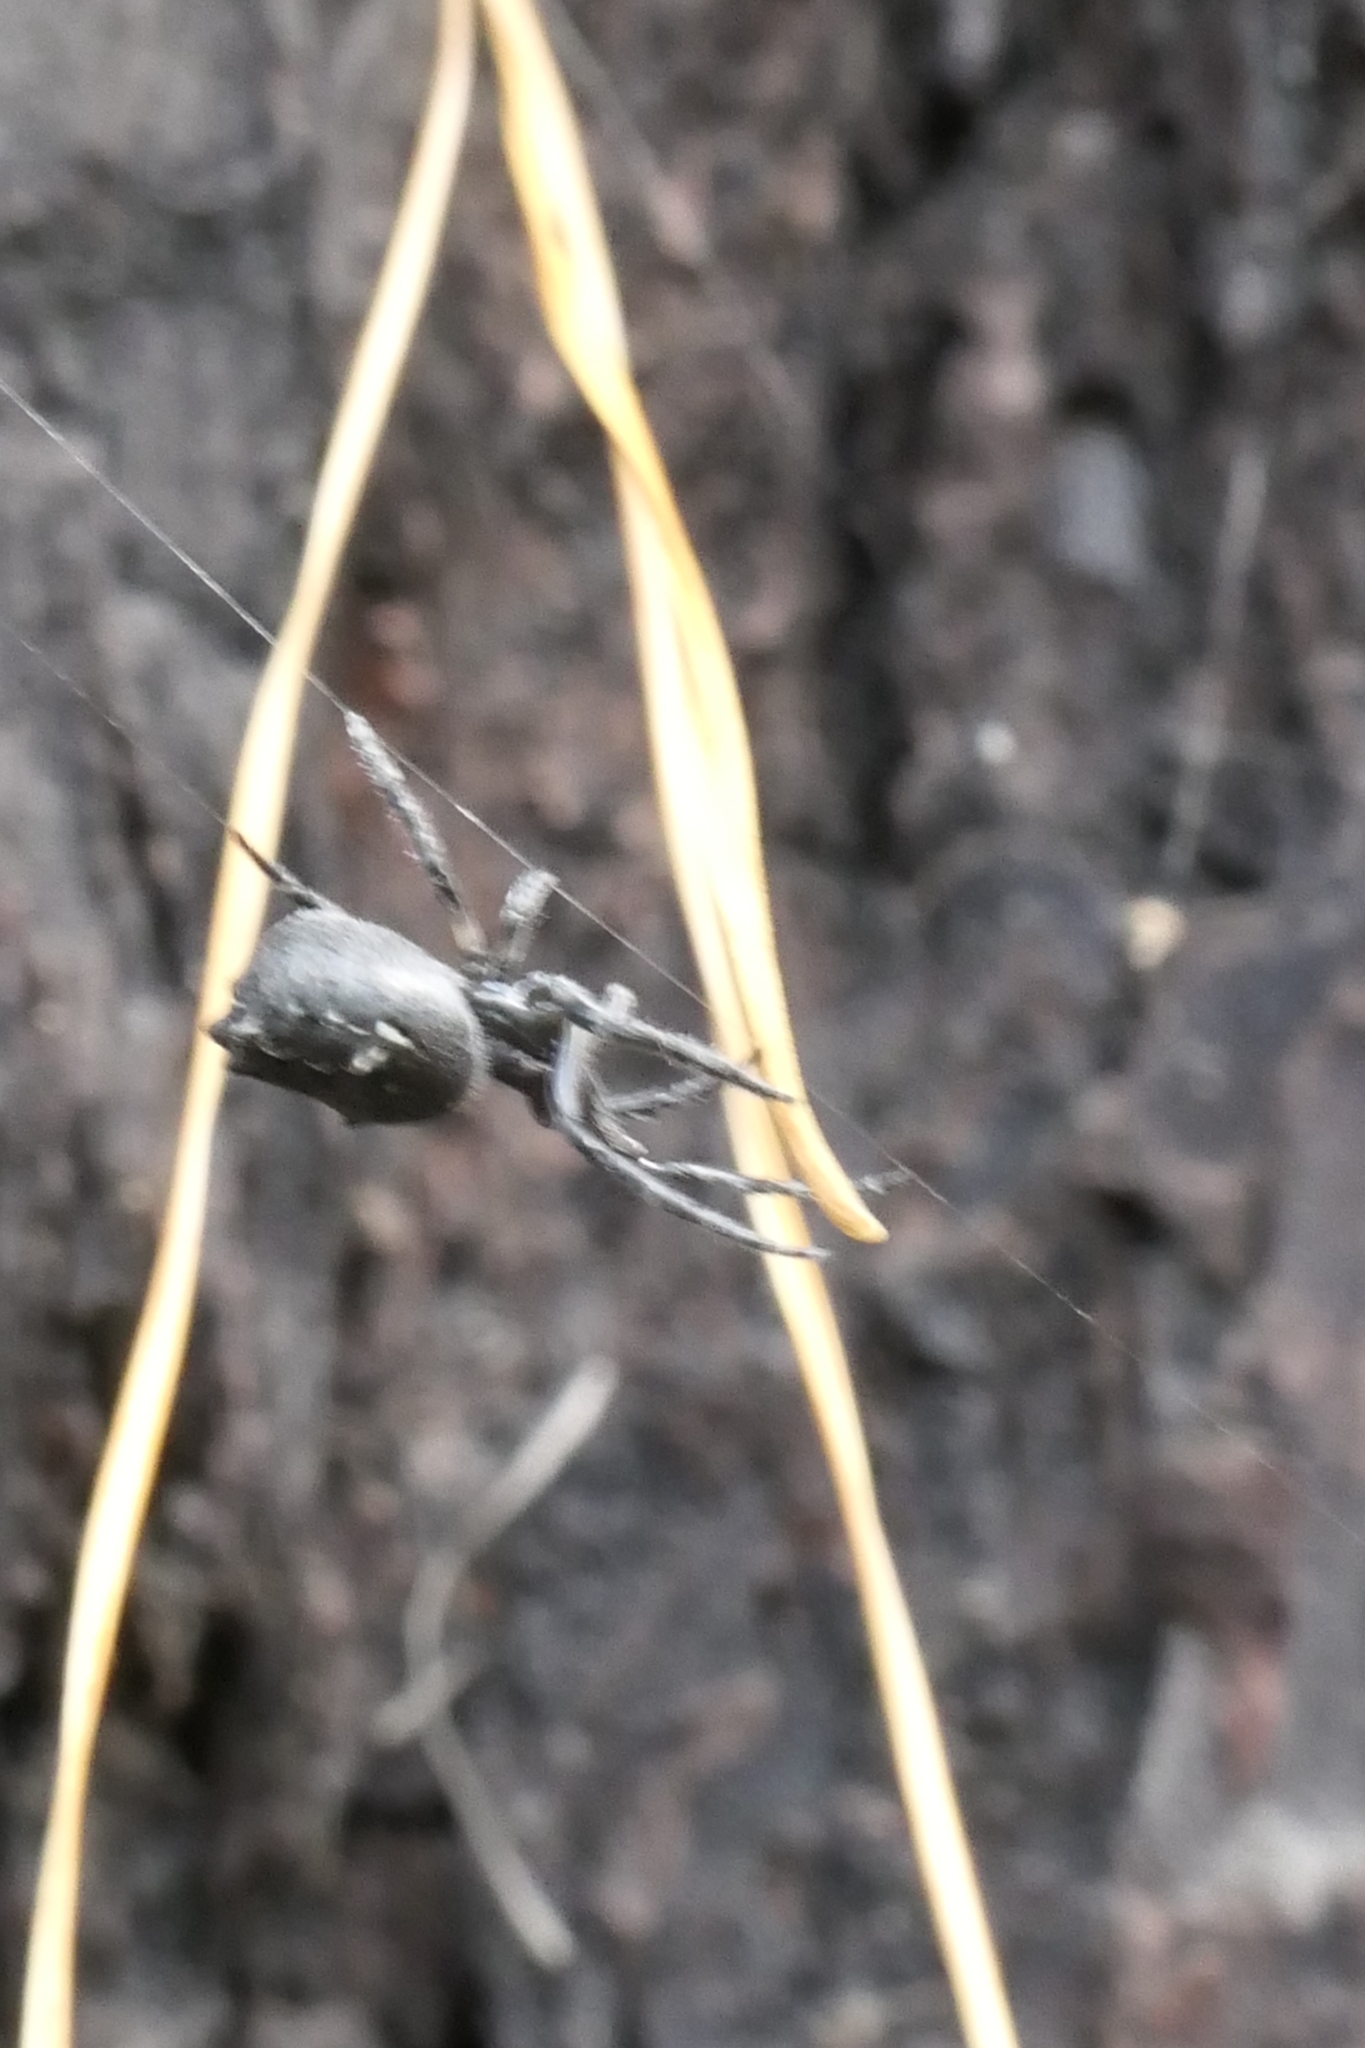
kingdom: Animalia
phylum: Arthropoda
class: Arachnida
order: Araneae
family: Araneidae
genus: Eriophora
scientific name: Eriophora pustulosa
